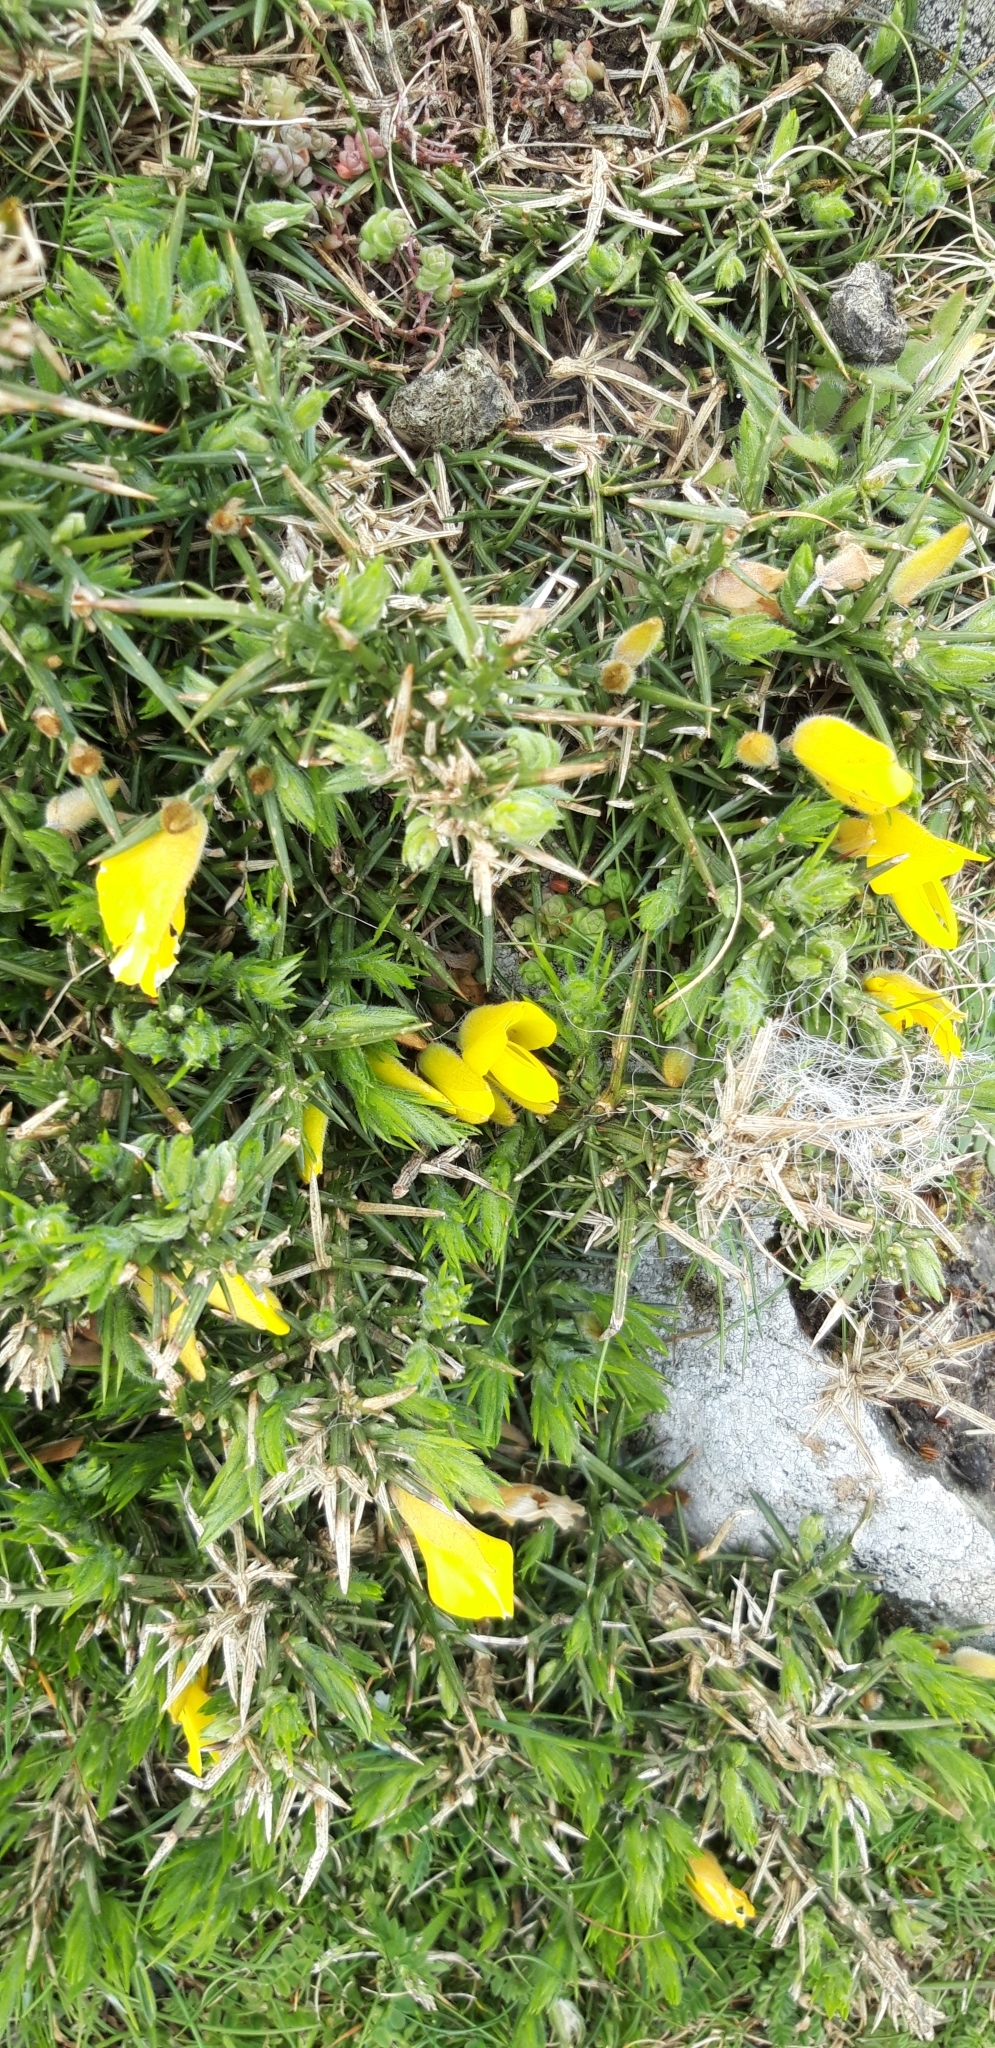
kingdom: Plantae
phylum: Tracheophyta
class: Magnoliopsida
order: Fabales
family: Fabaceae
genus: Ulex
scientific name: Ulex europaeus
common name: Common gorse
